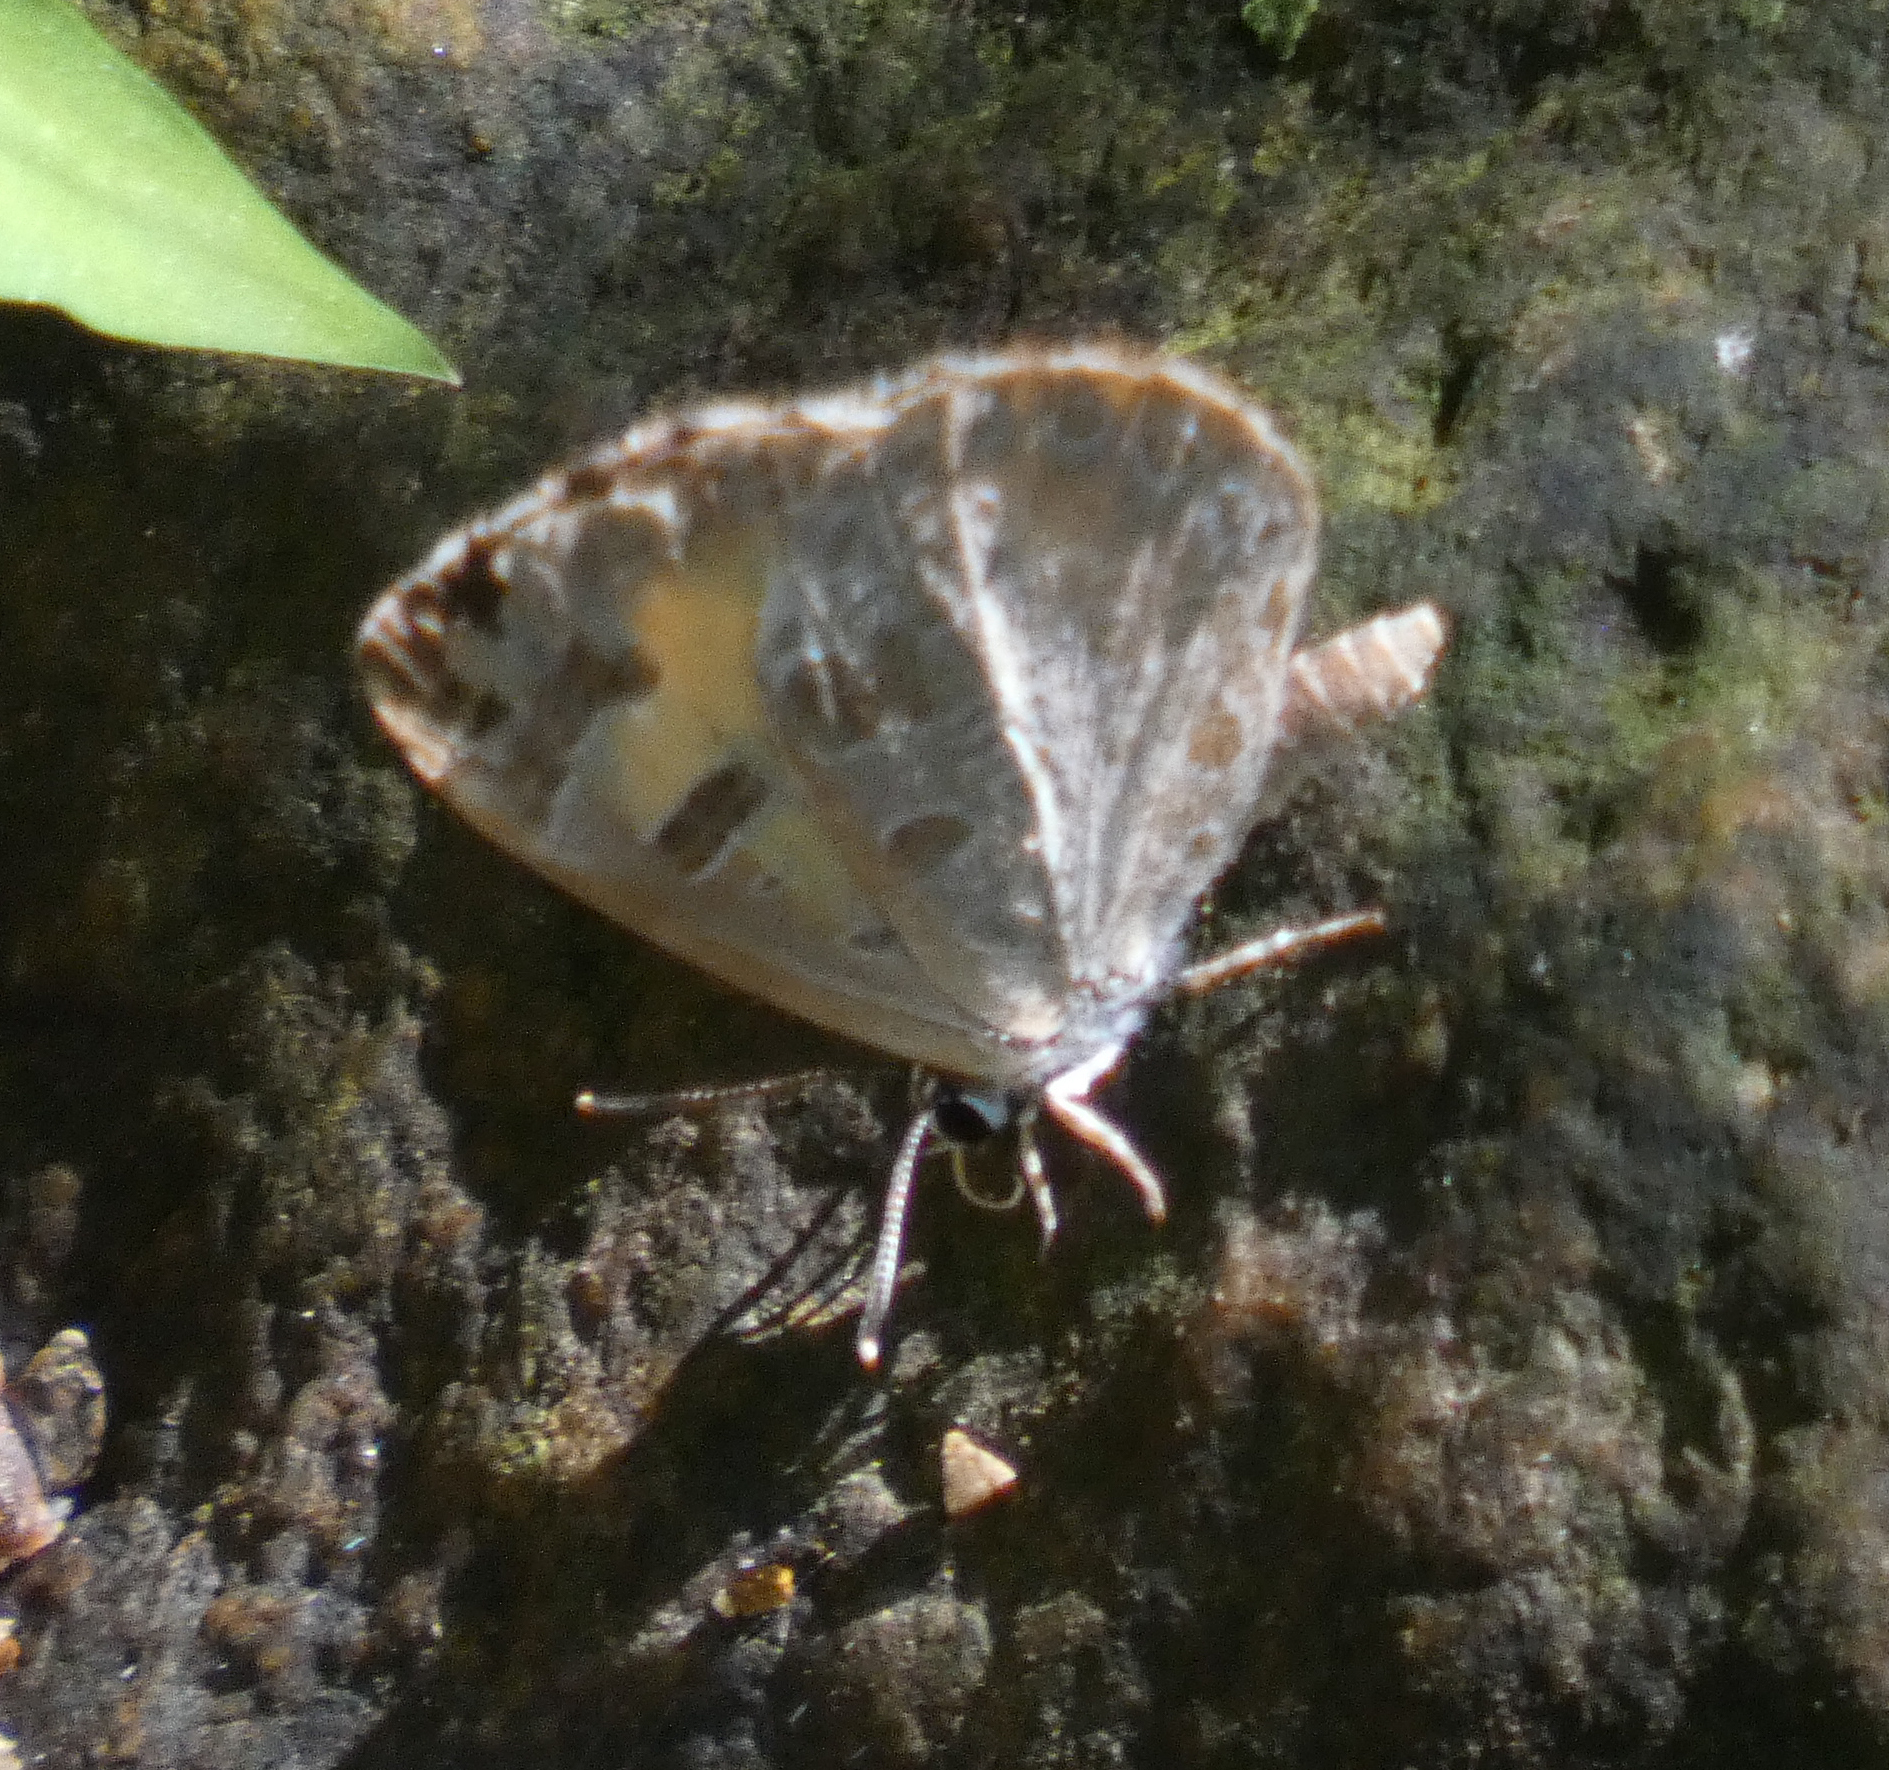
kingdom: Animalia
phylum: Arthropoda
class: Insecta
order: Lepidoptera
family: Lycaenidae
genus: Feniseca
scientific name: Feniseca tarquinius
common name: Harvester
